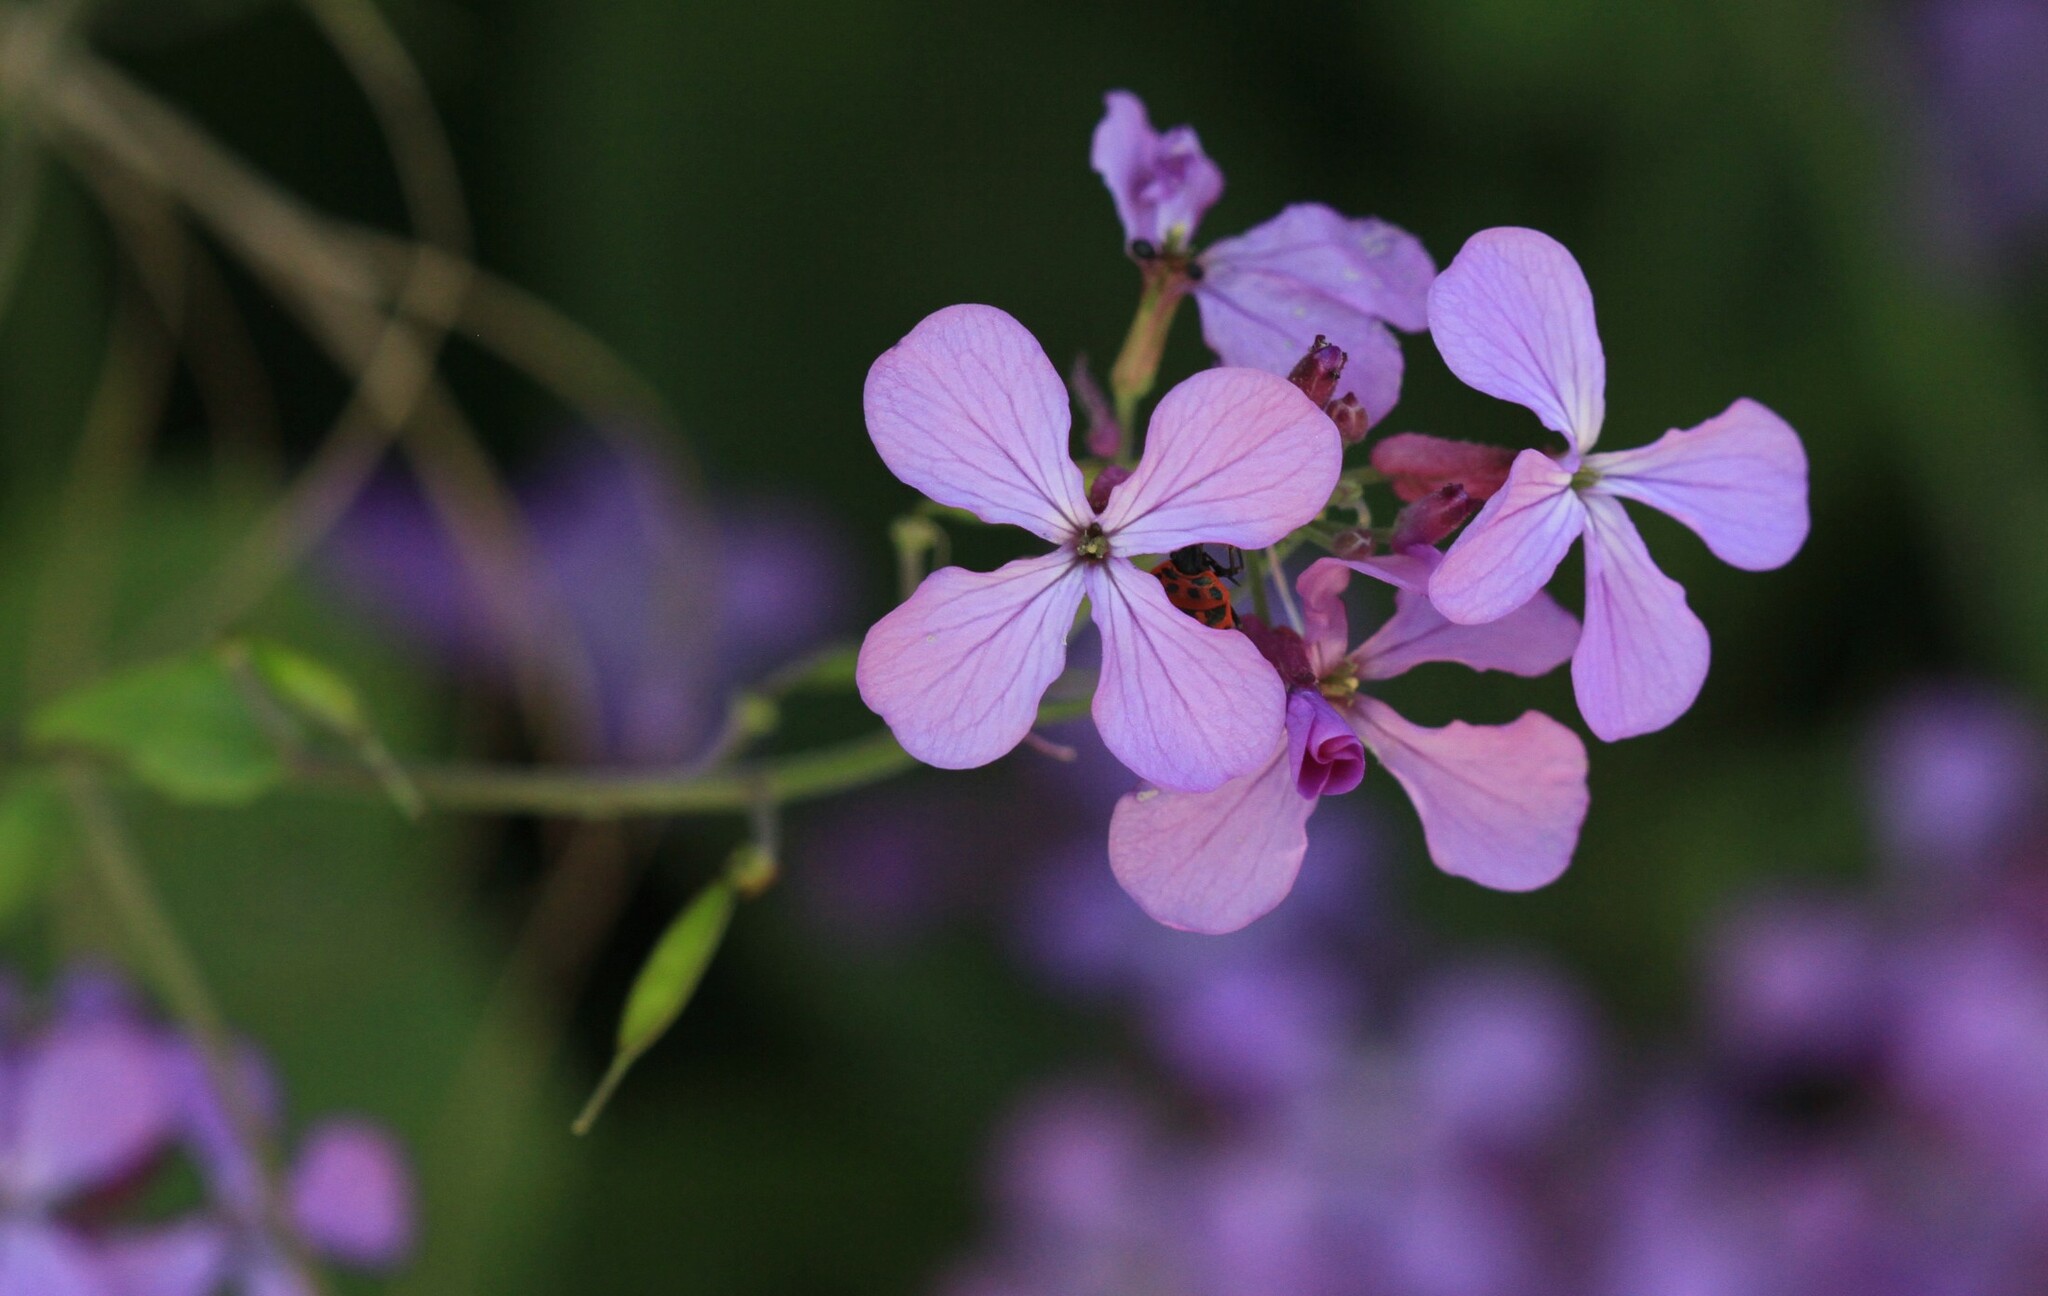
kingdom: Plantae
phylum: Tracheophyta
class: Magnoliopsida
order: Brassicales
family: Brassicaceae
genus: Lunaria
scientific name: Lunaria annua
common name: Honesty
